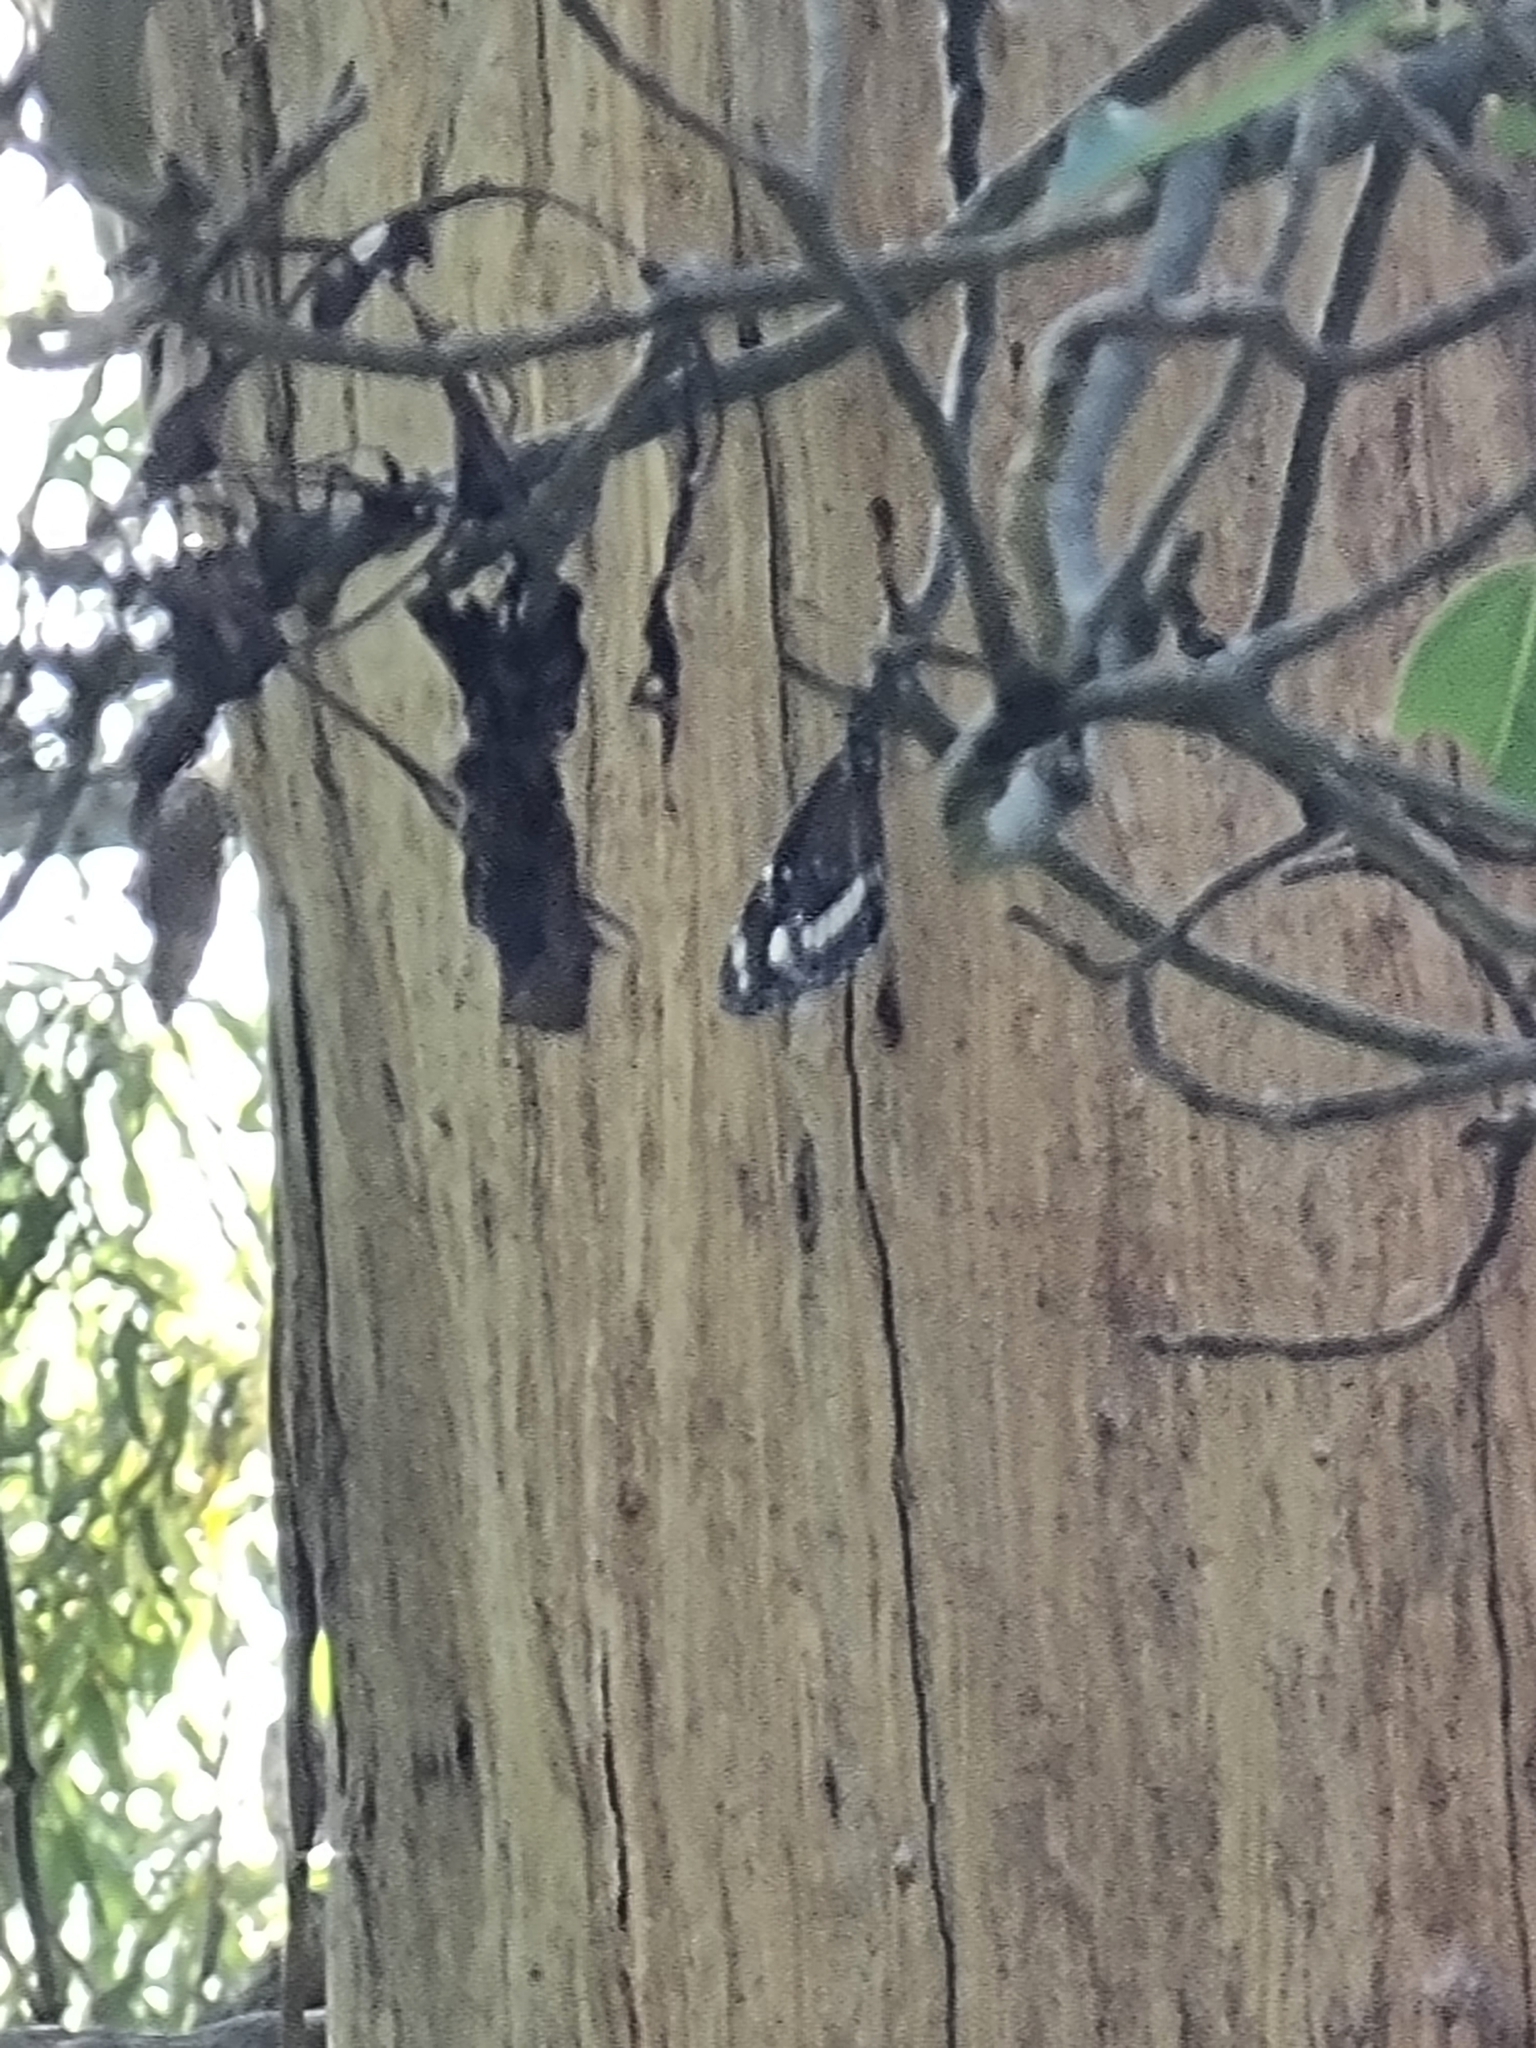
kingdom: Animalia
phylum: Arthropoda
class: Insecta
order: Lepidoptera
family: Nymphalidae
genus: Euploea
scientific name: Euploea core
